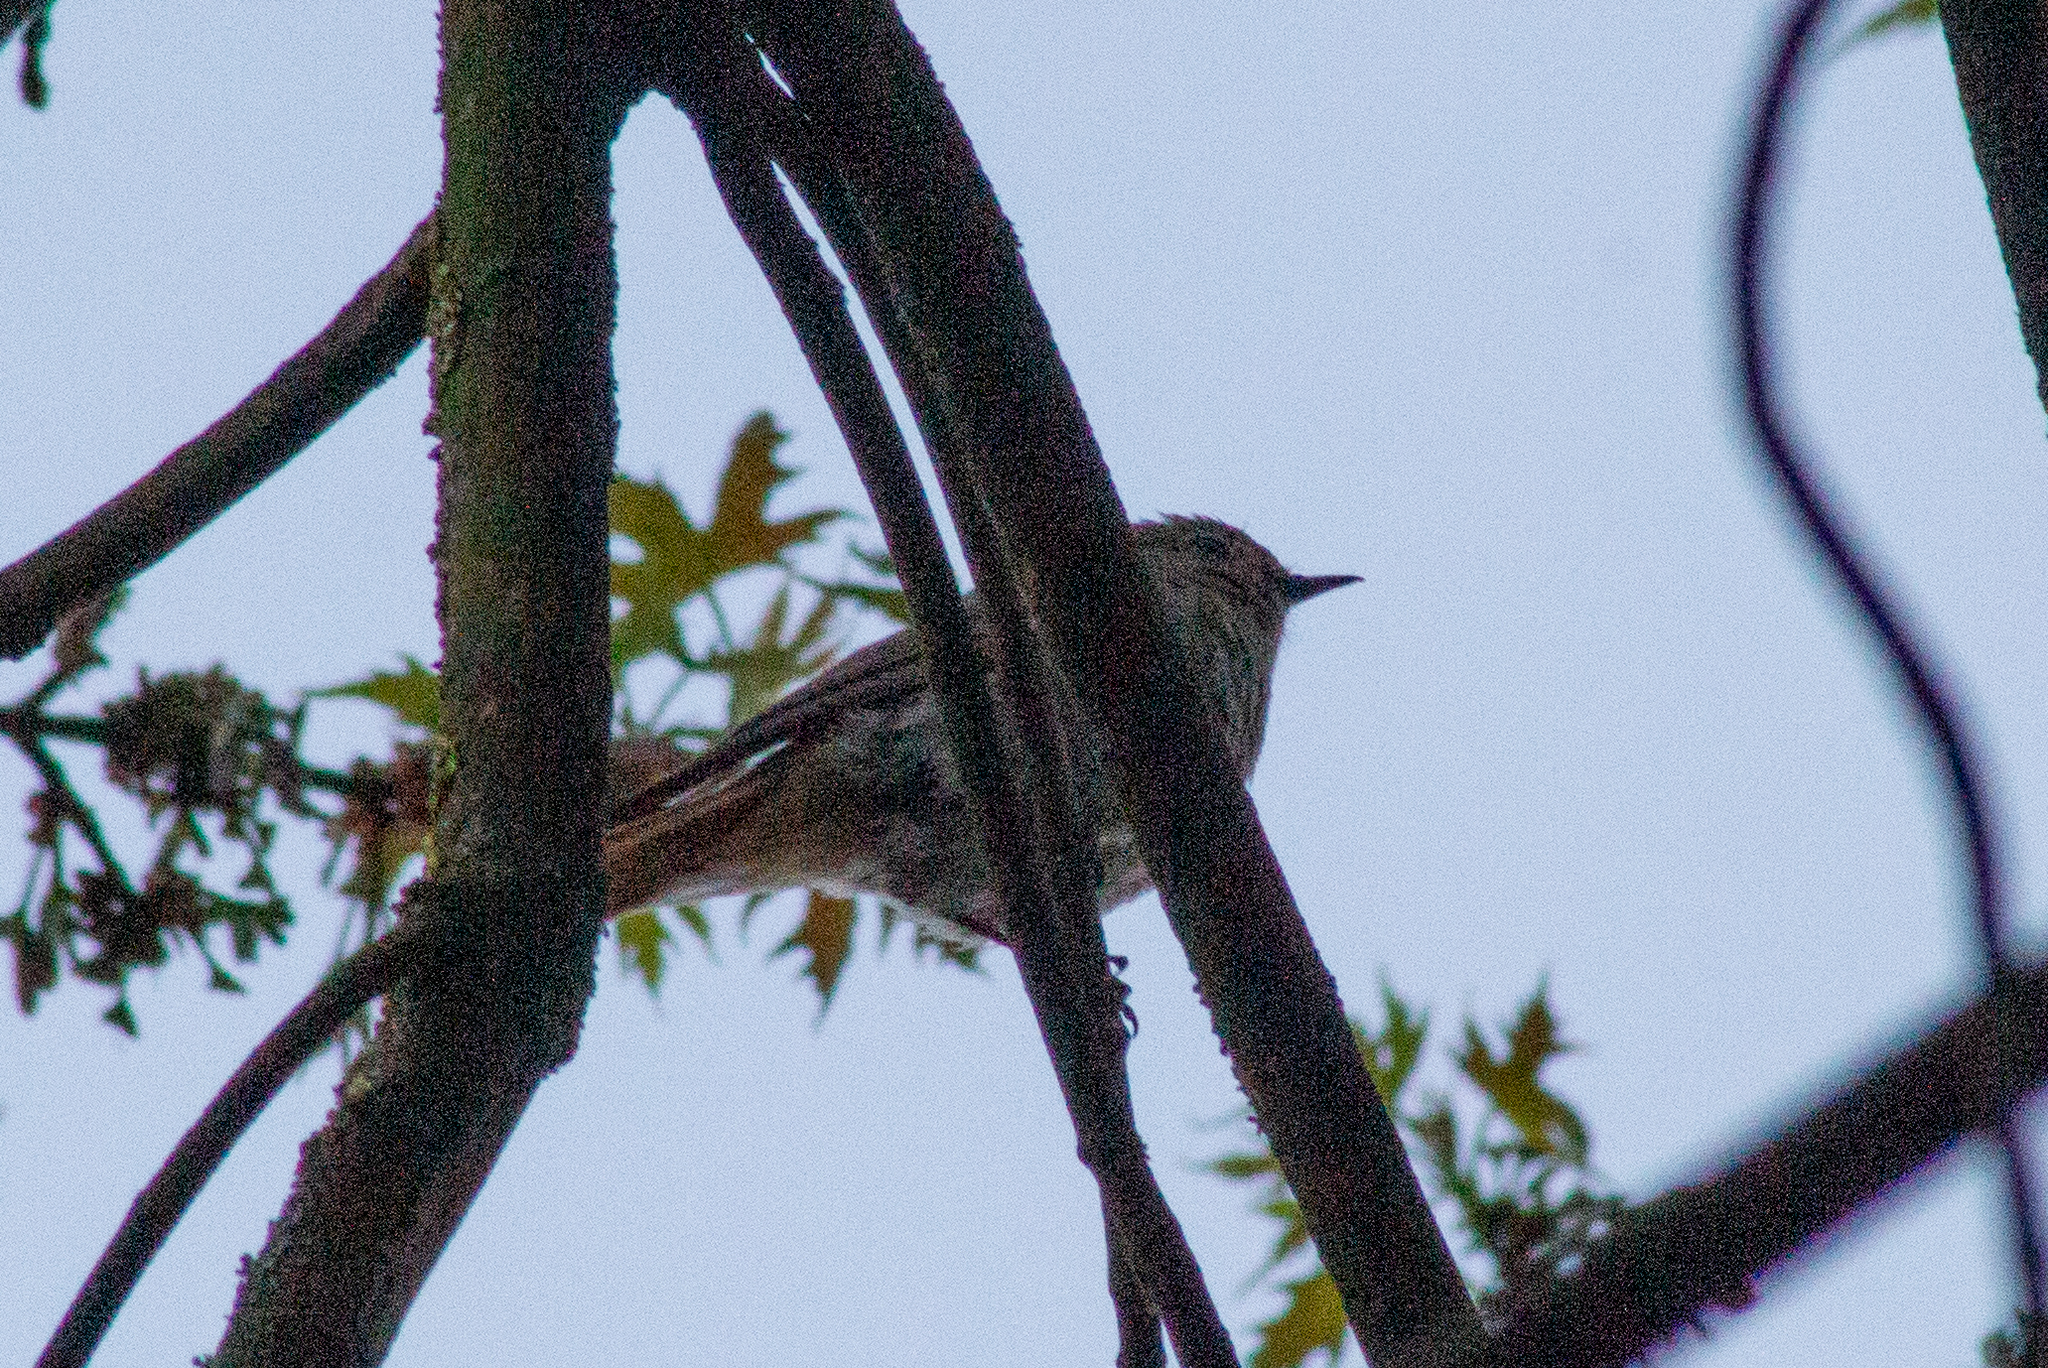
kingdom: Animalia
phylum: Chordata
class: Aves
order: Passeriformes
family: Muscicapidae
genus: Phoenicurus
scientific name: Phoenicurus ochruros
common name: Black redstart
